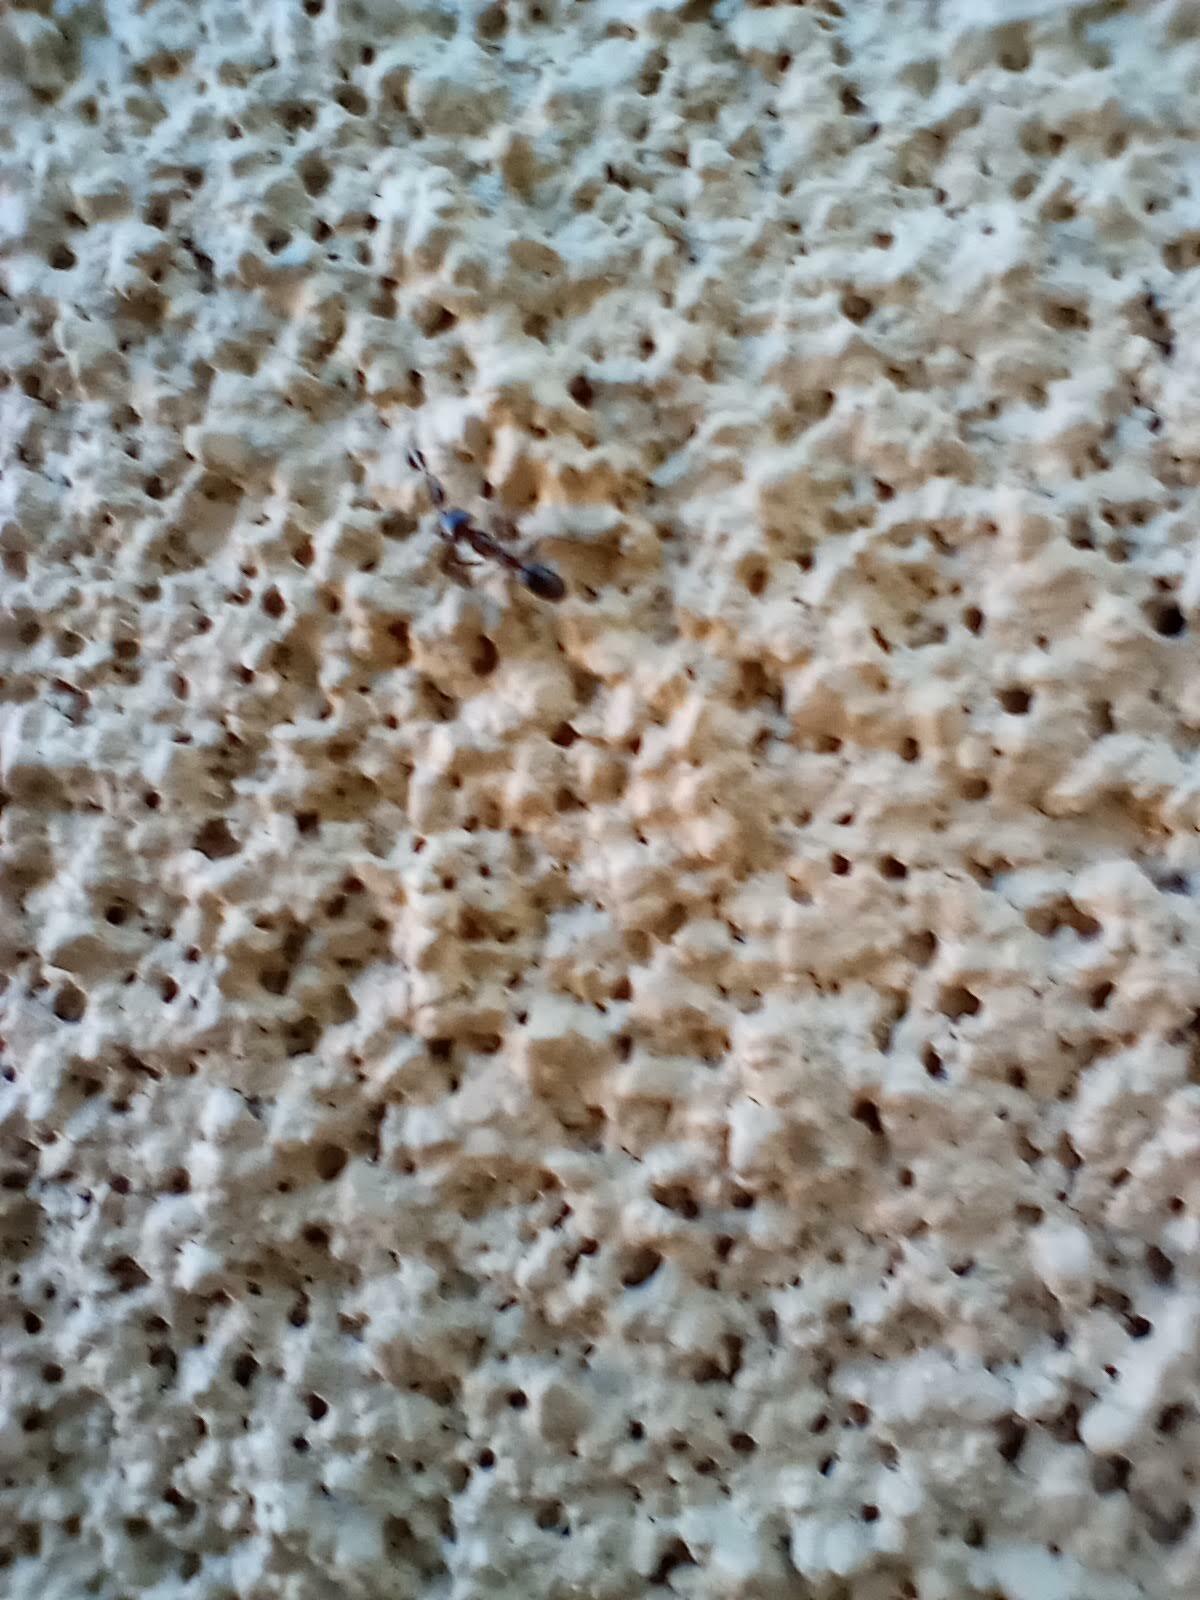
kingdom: Animalia
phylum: Arthropoda
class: Insecta
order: Hymenoptera
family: Formicidae
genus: Dorymyrmex
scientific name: Dorymyrmex
